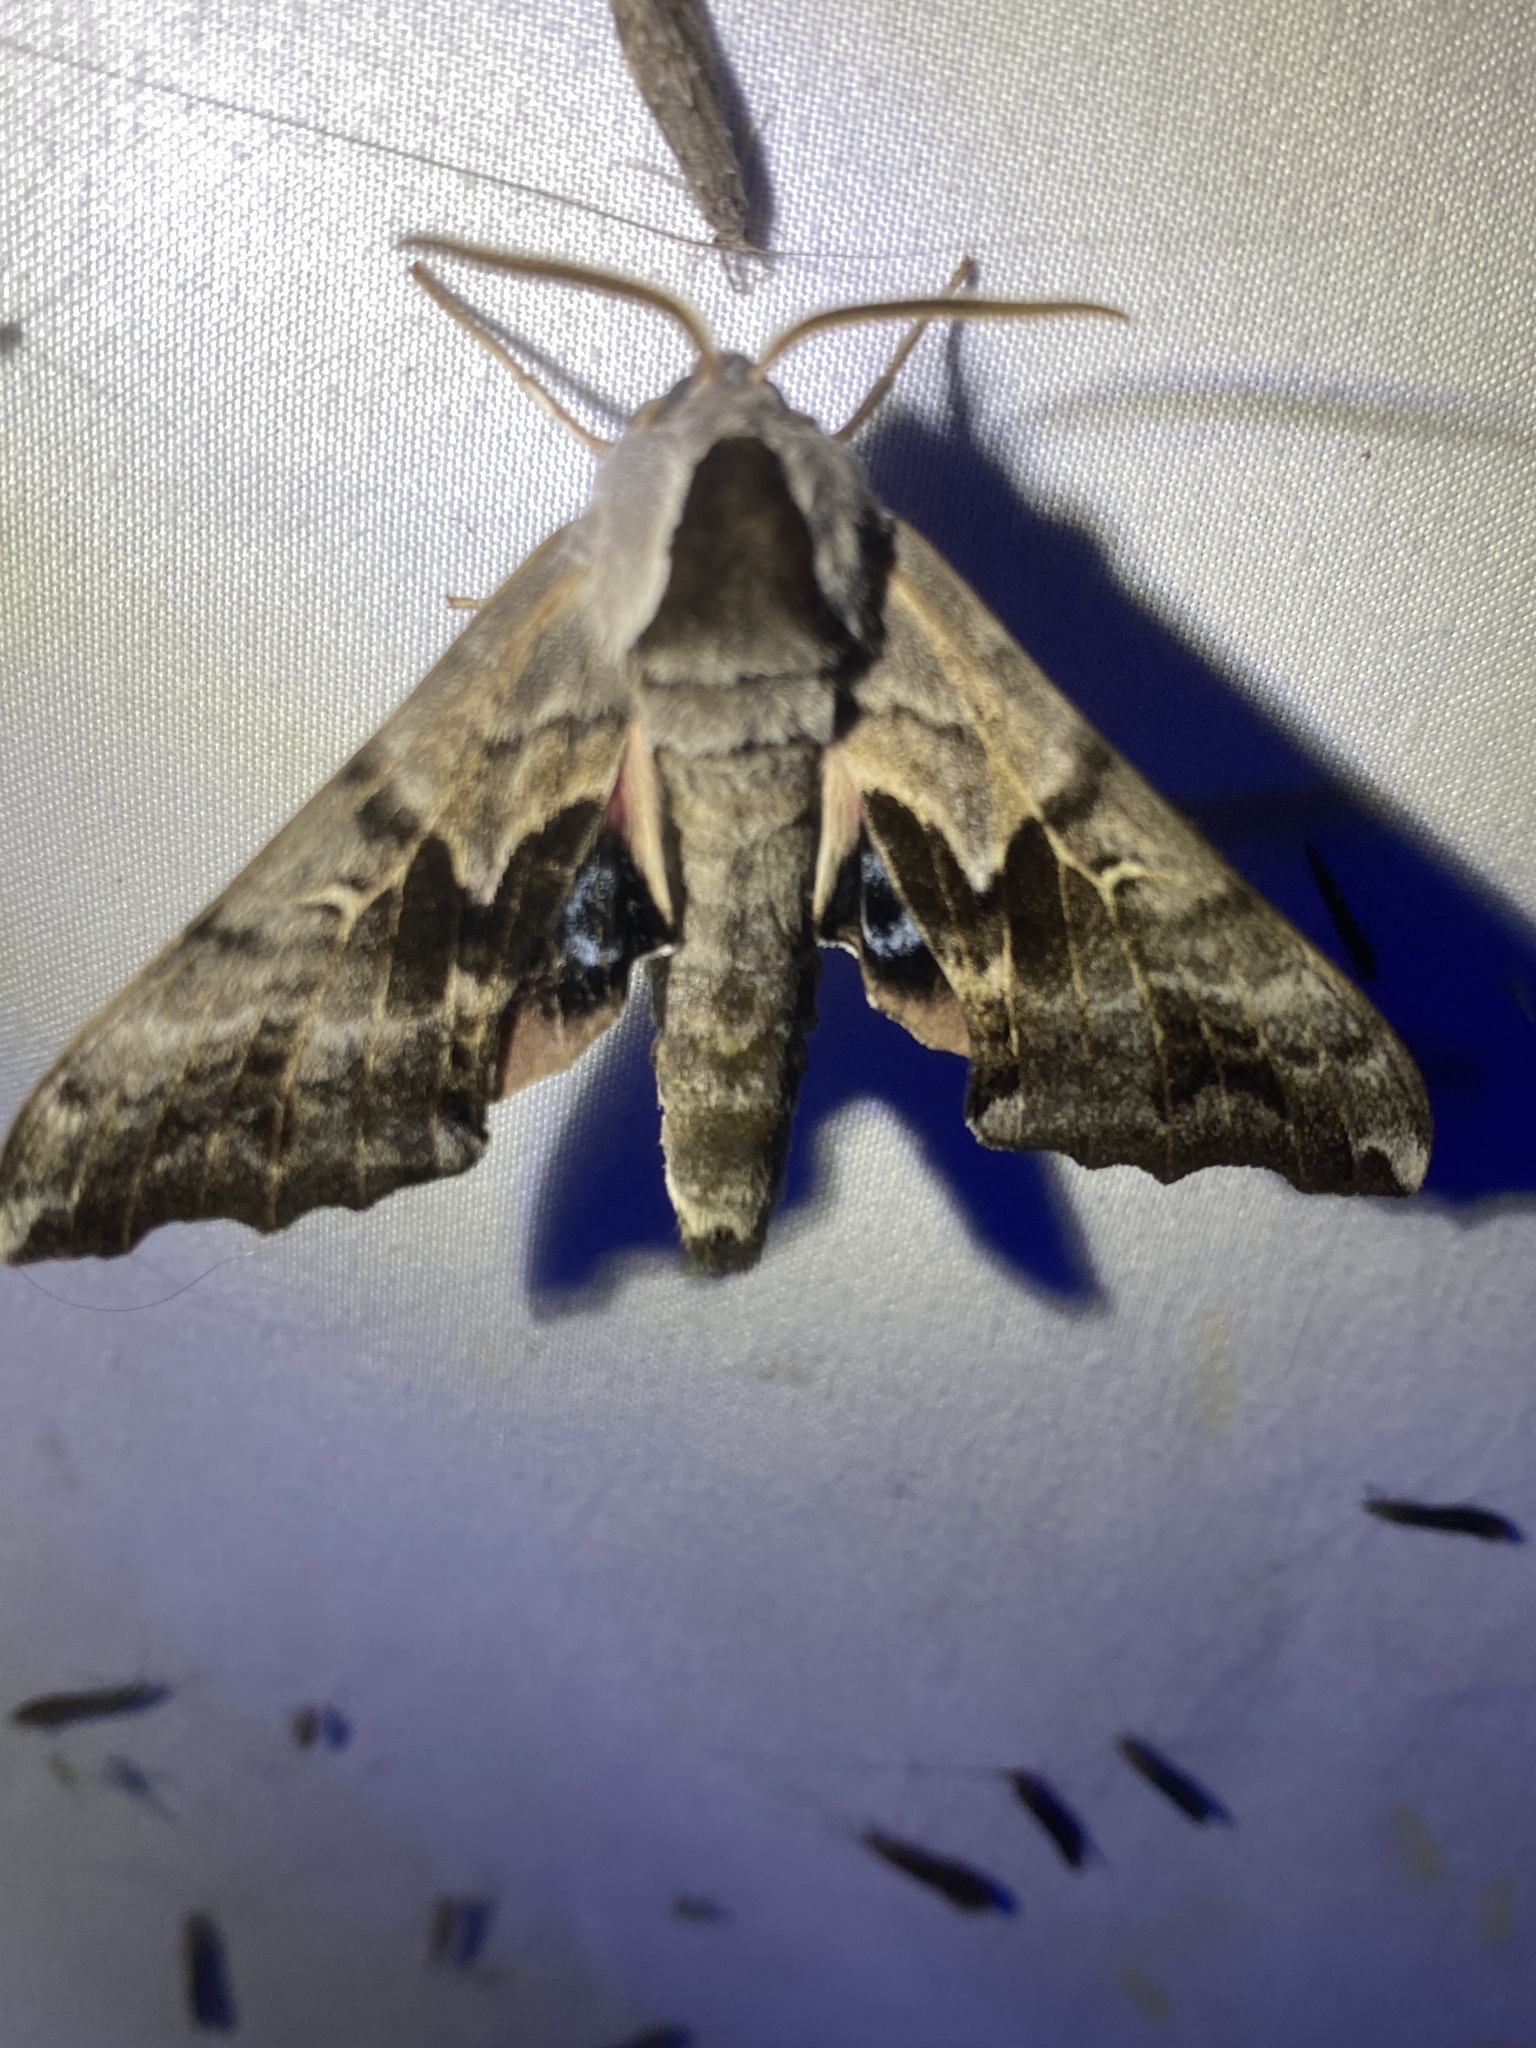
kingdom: Animalia
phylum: Arthropoda
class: Insecta
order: Lepidoptera
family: Sphingidae
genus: Smerinthus
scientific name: Smerinthus cerisyi
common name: Cerisy's sphinx moth
